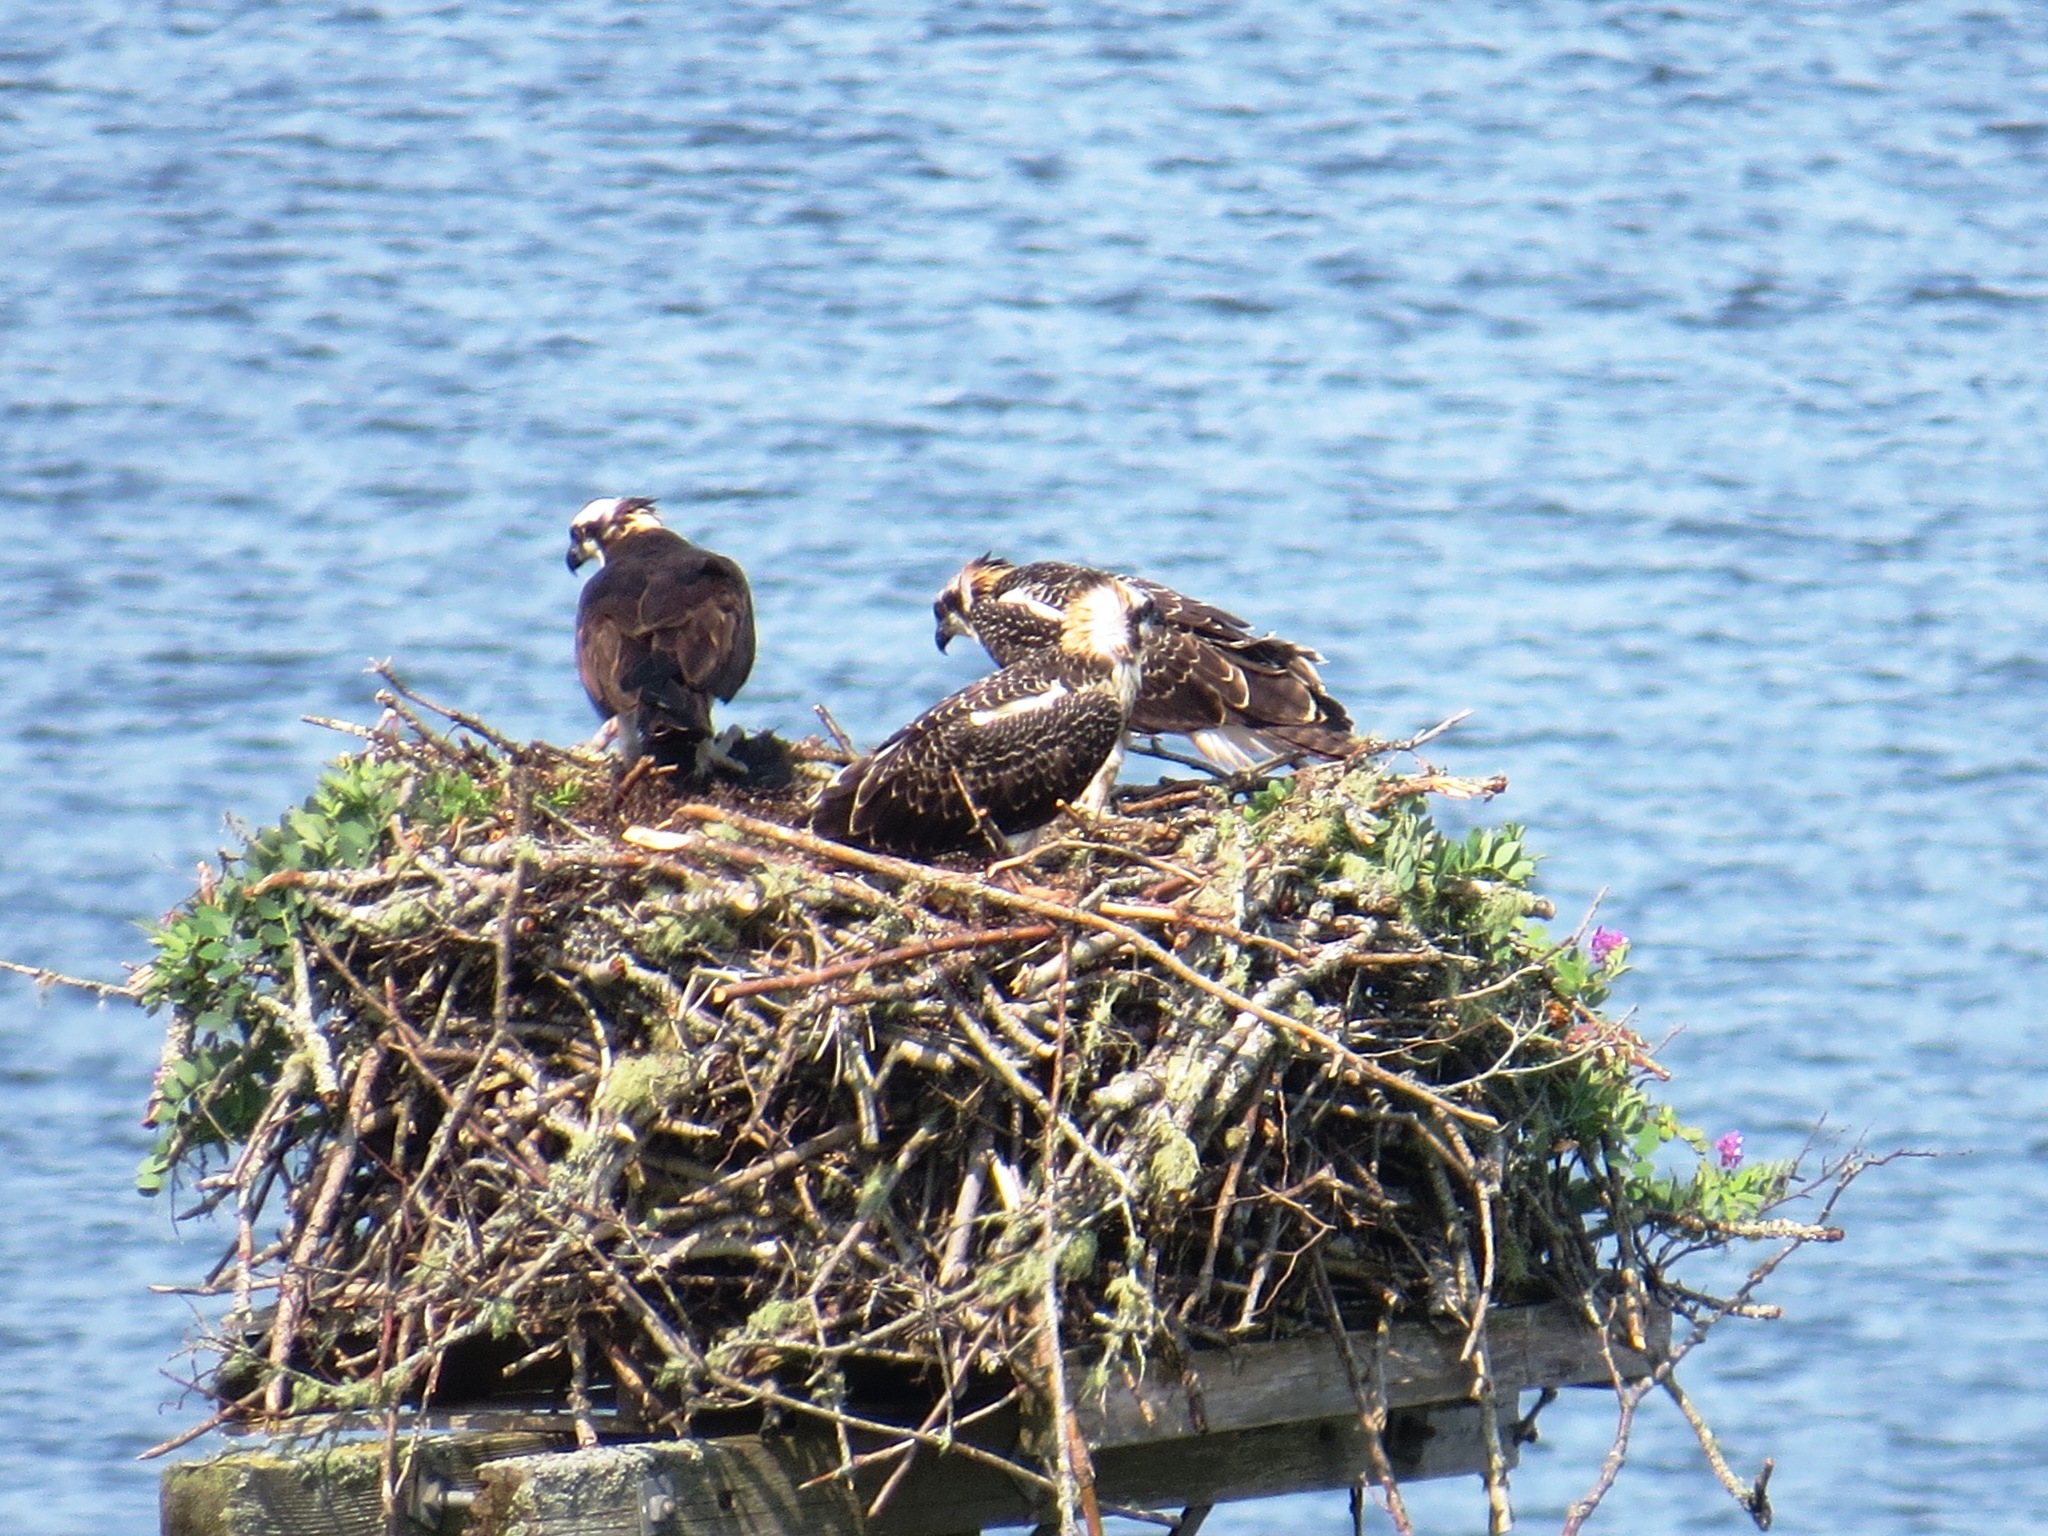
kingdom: Animalia
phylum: Chordata
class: Aves
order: Accipitriformes
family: Pandionidae
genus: Pandion
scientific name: Pandion haliaetus
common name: Osprey
